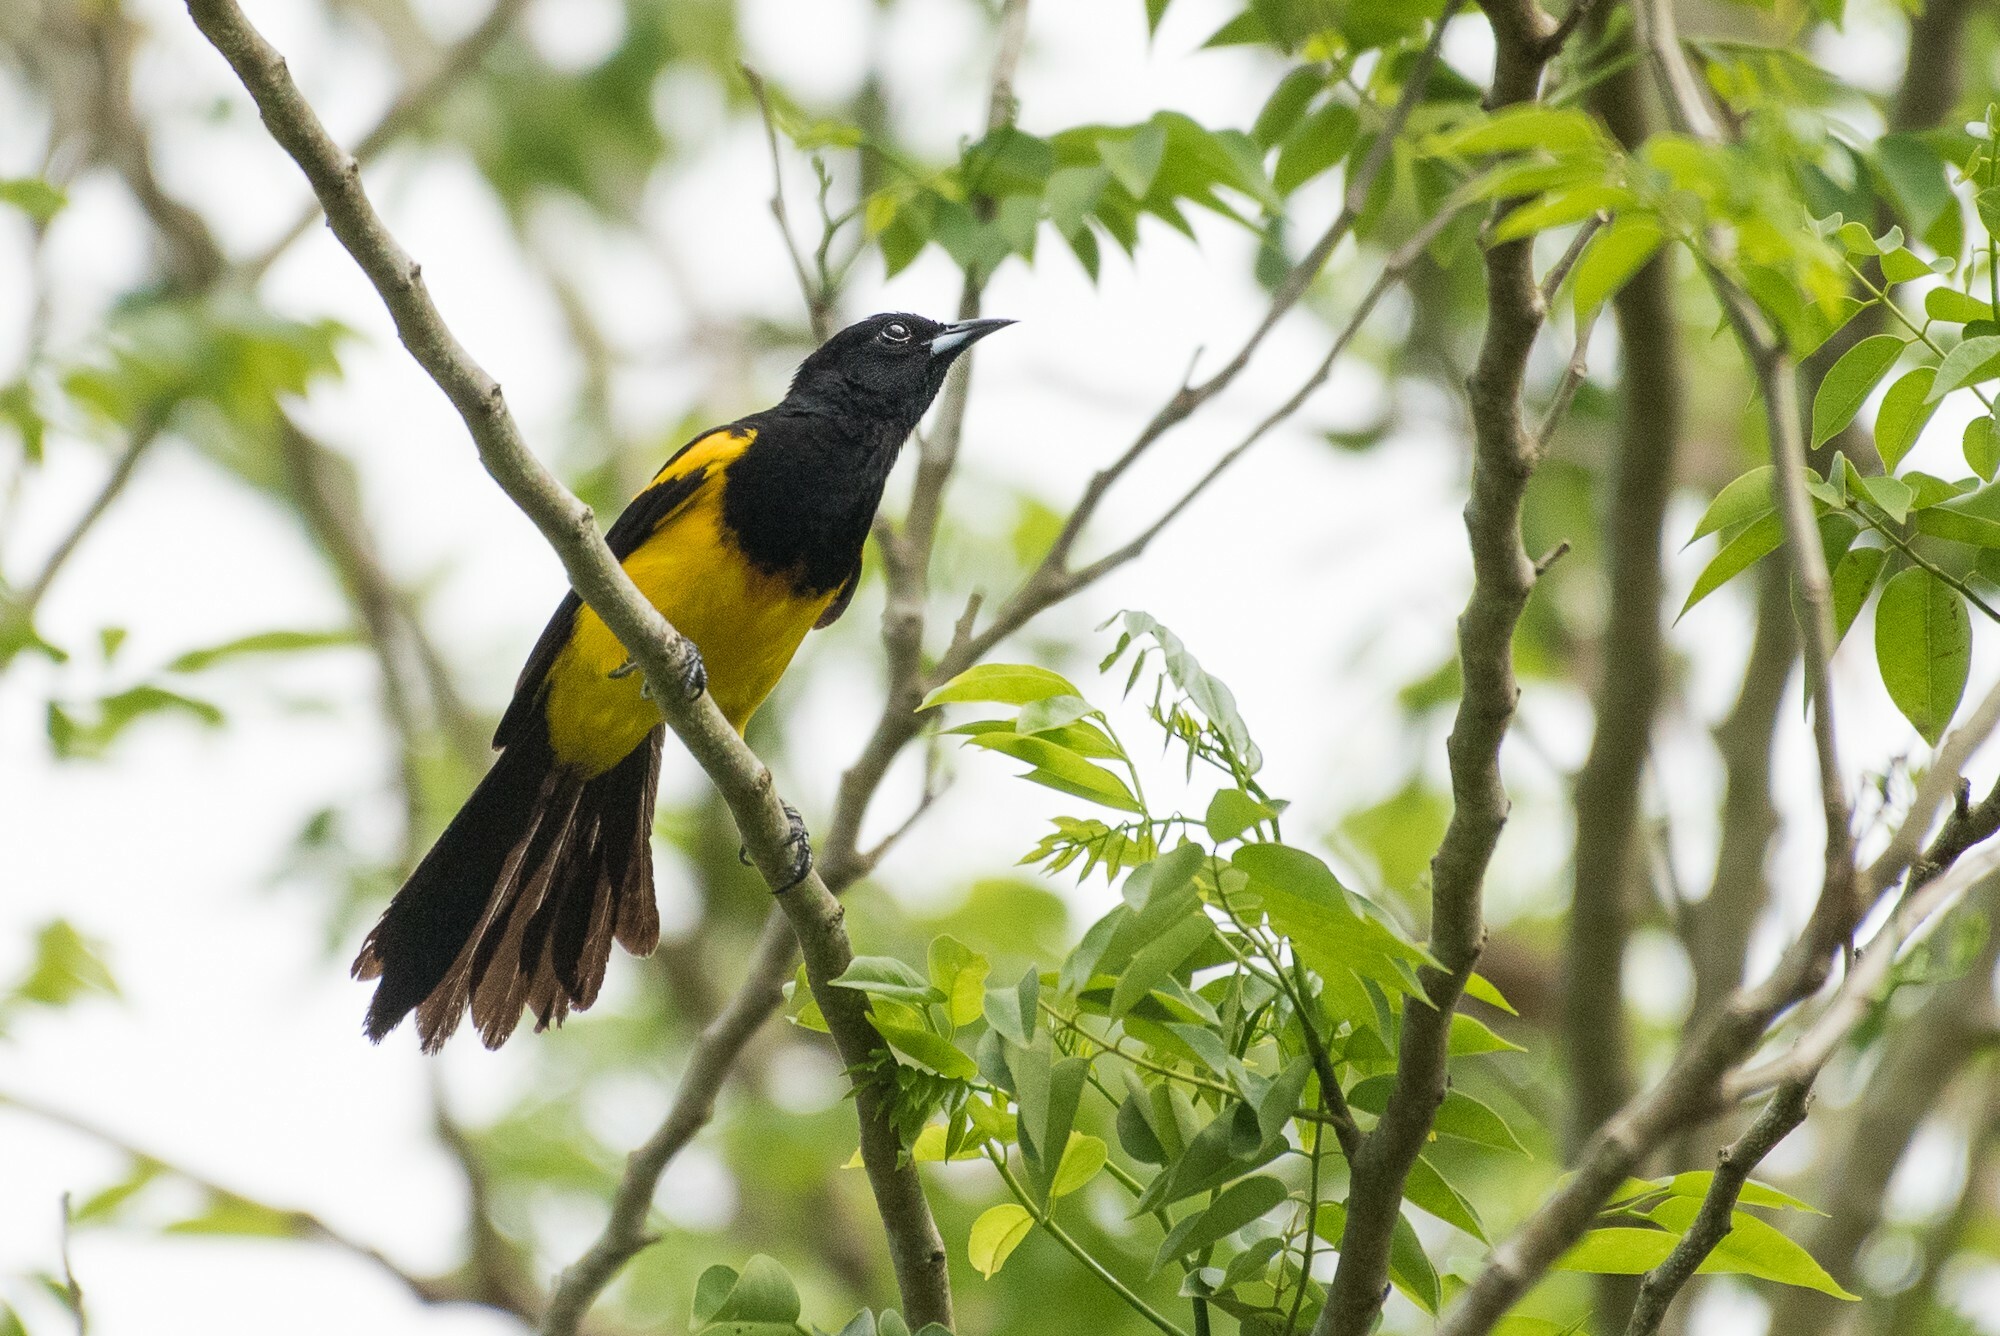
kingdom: Animalia
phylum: Chordata
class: Aves
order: Passeriformes
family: Icteridae
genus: Icterus
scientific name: Icterus prosthemelas
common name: Black-cowled oriole
